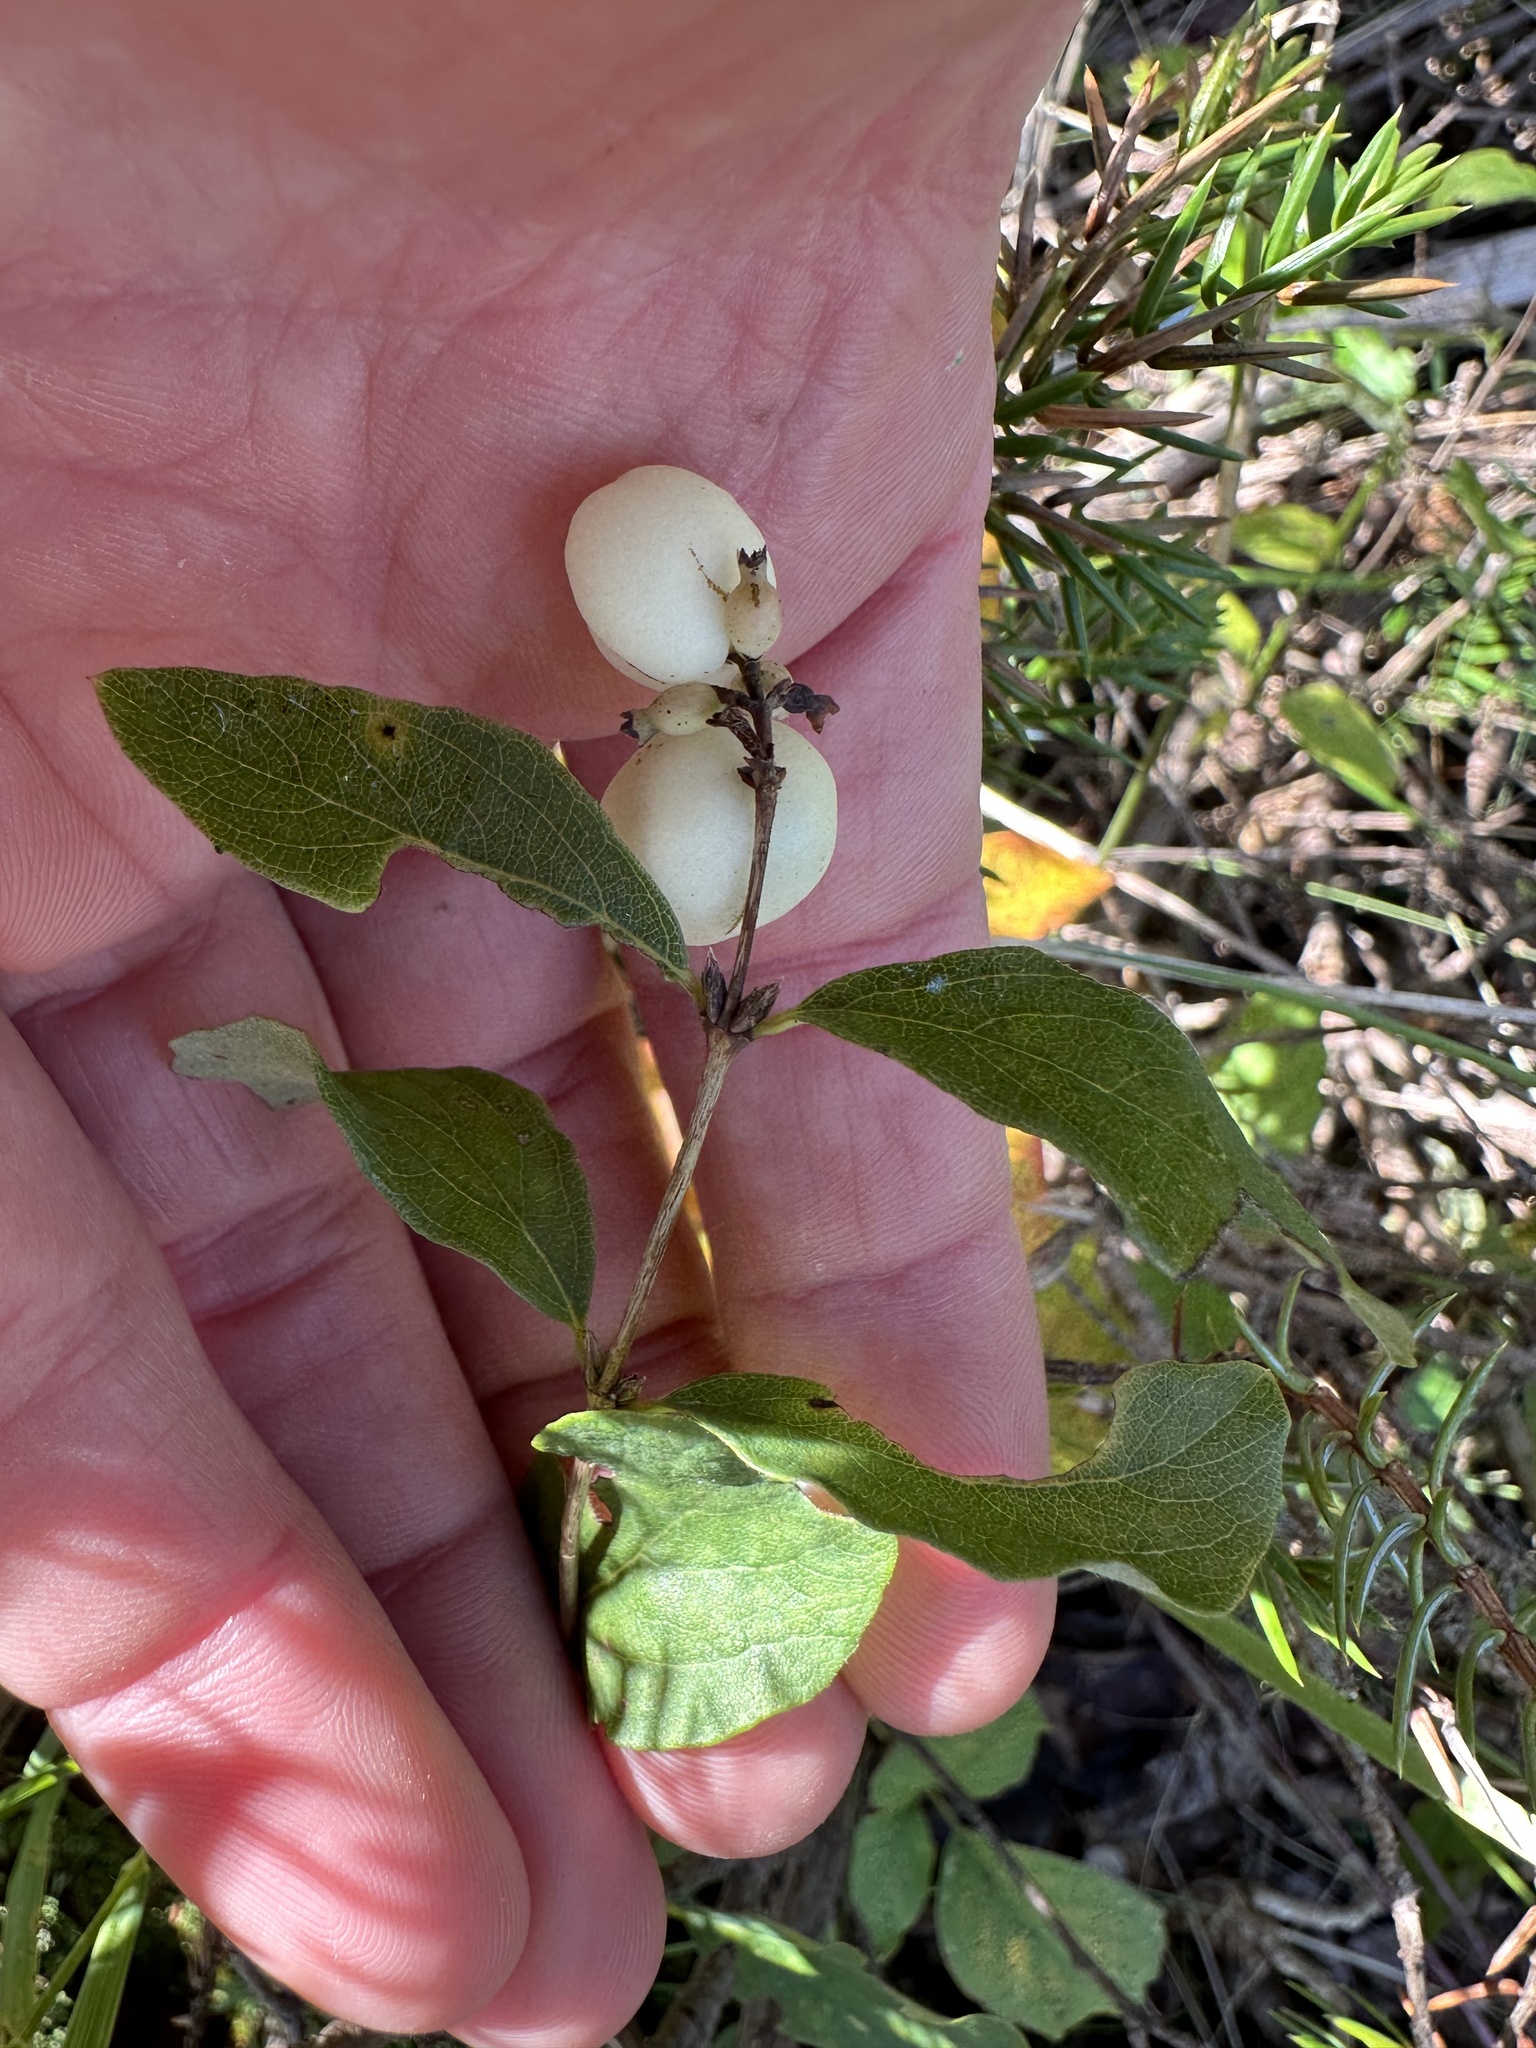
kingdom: Plantae
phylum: Tracheophyta
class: Magnoliopsida
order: Dipsacales
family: Caprifoliaceae
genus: Symphoricarpos
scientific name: Symphoricarpos albus
